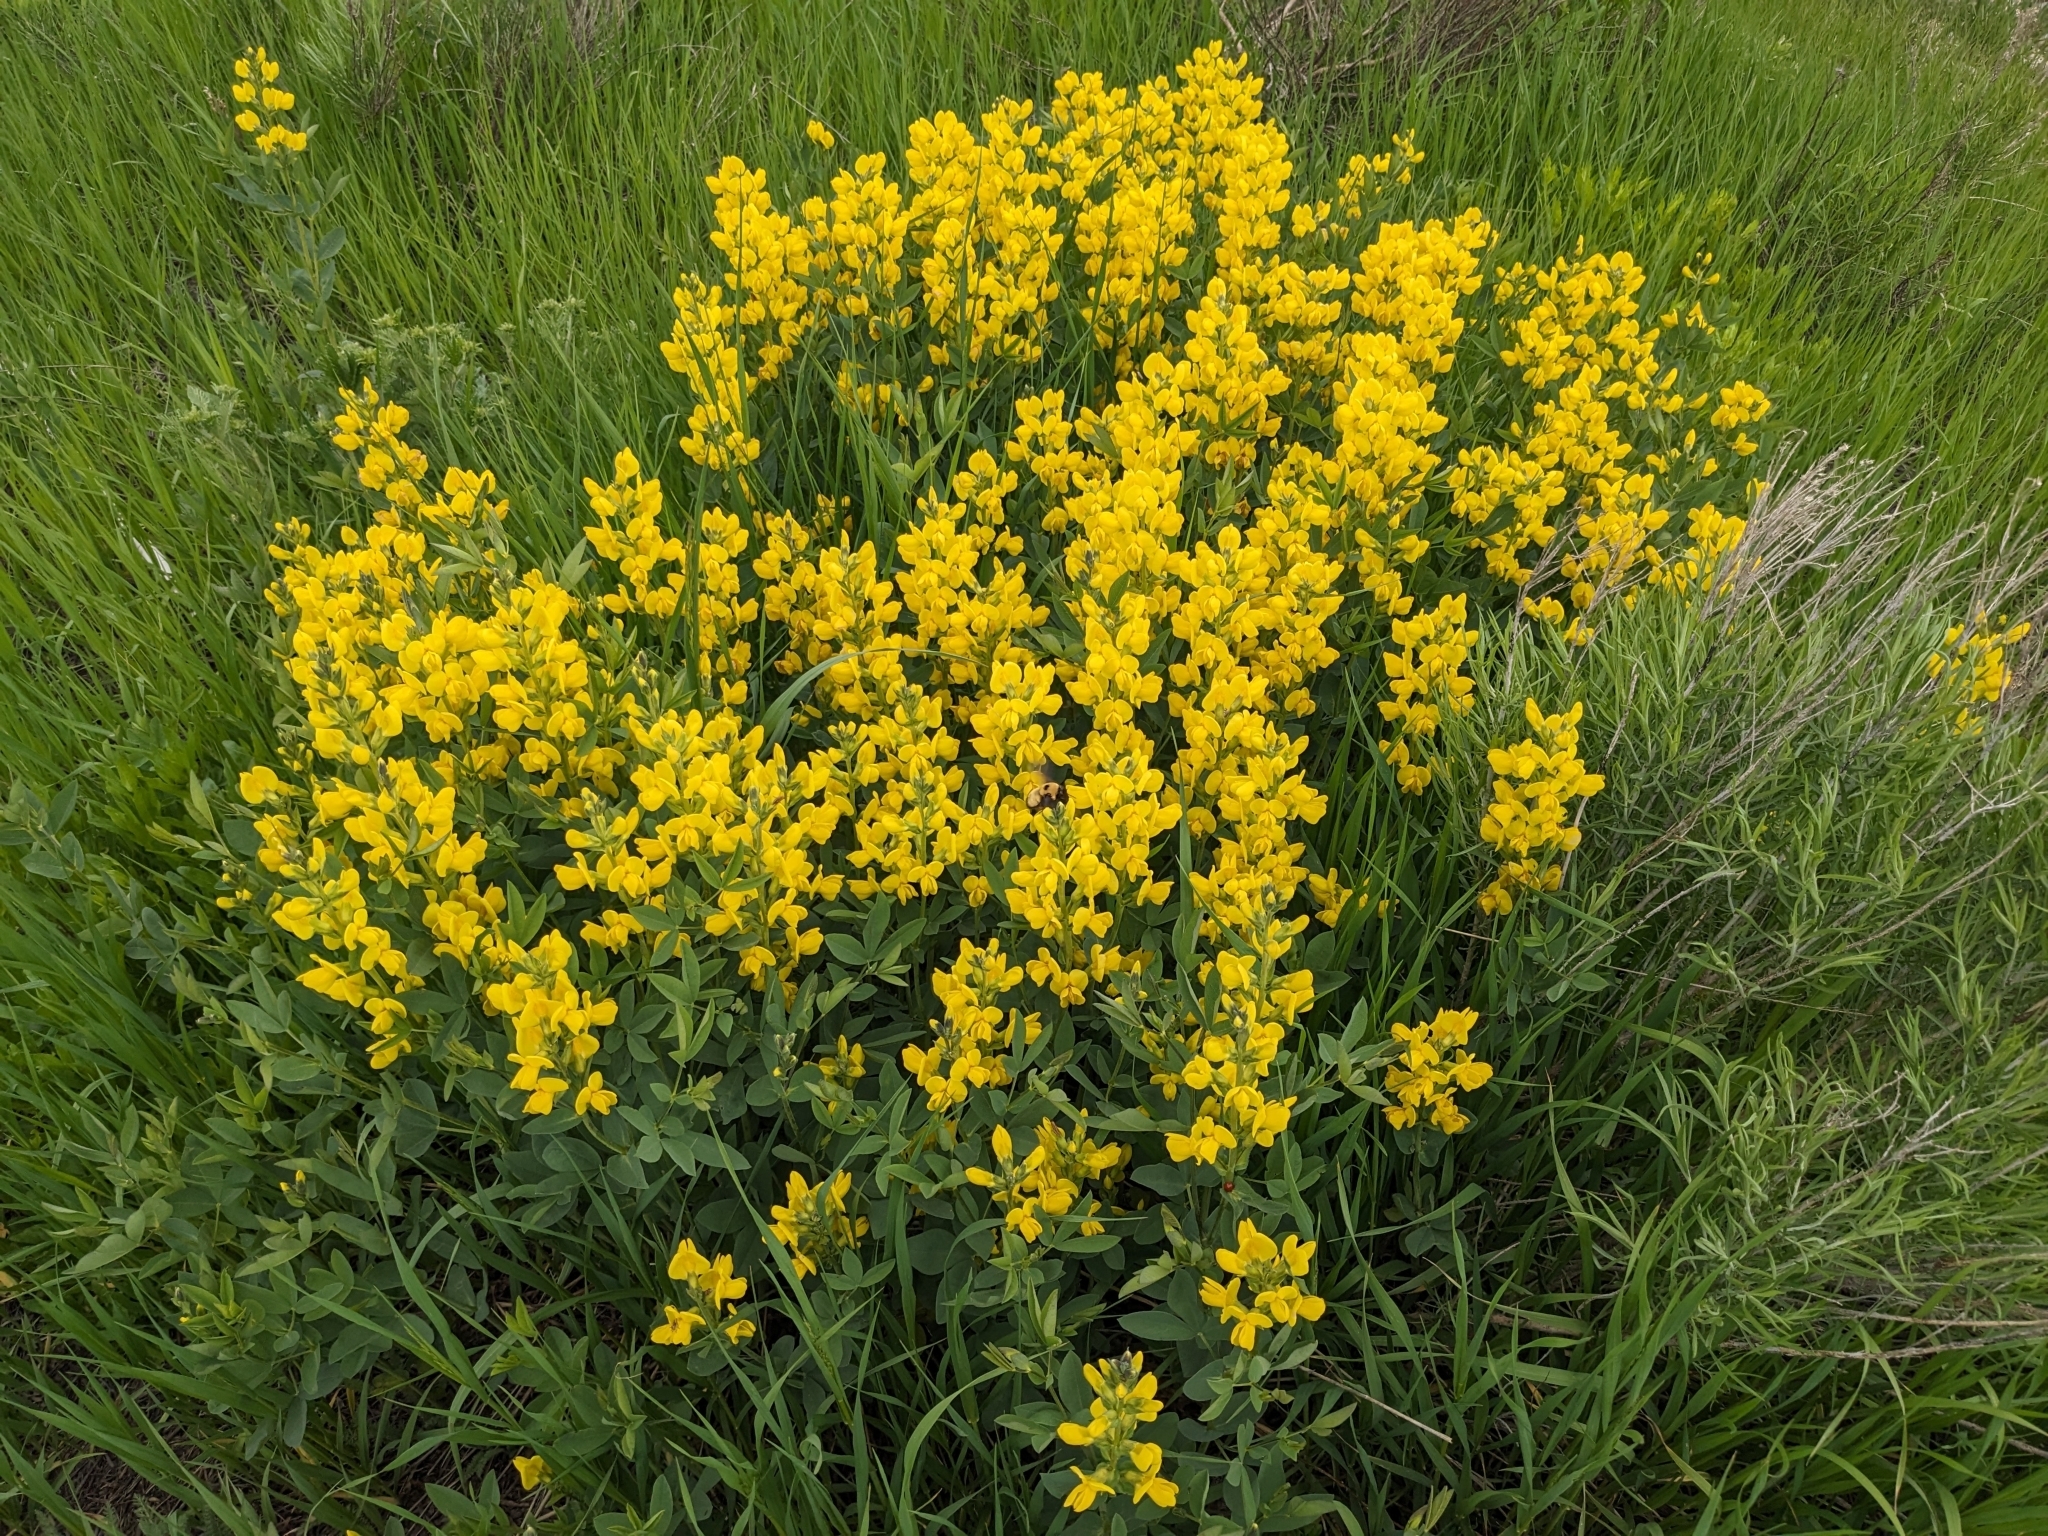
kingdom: Plantae
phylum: Tracheophyta
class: Magnoliopsida
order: Fabales
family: Fabaceae
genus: Thermopsis
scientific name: Thermopsis montana
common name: False lupin
